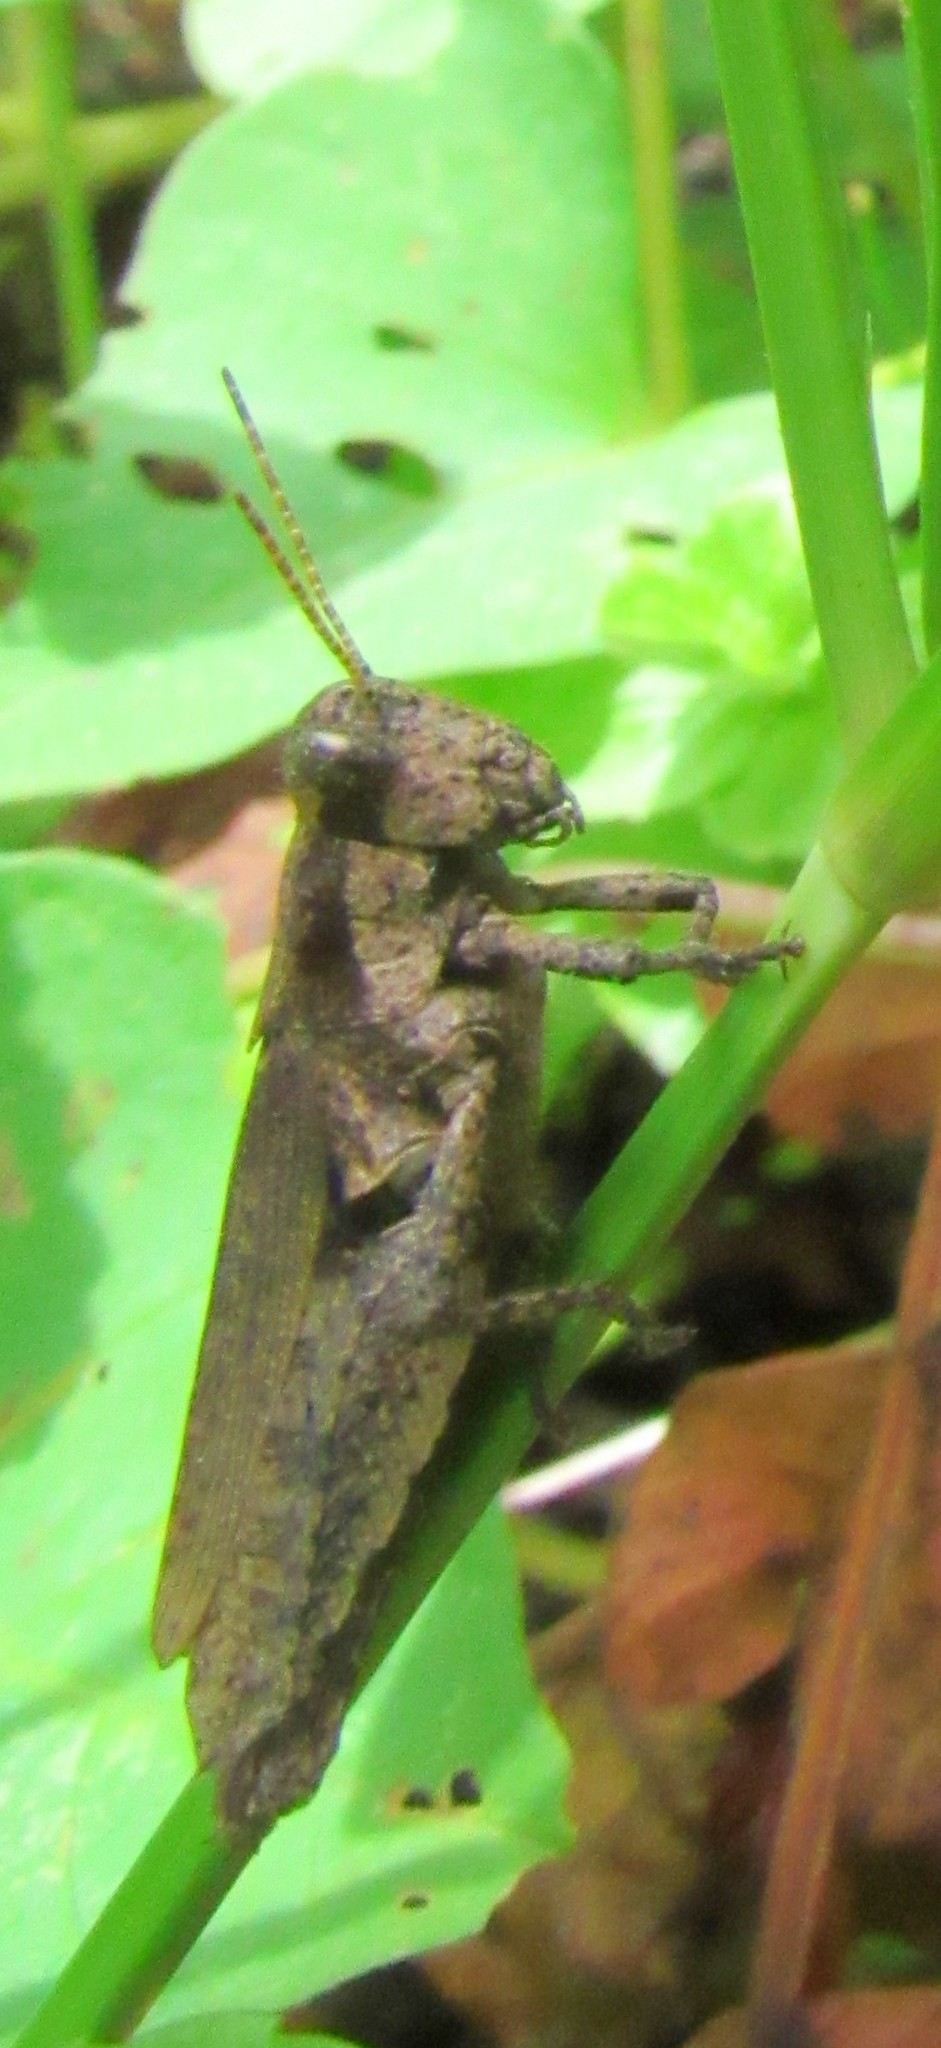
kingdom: Animalia
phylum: Arthropoda
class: Insecta
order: Orthoptera
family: Acrididae
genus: Ronderosia
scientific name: Ronderosia bergii
